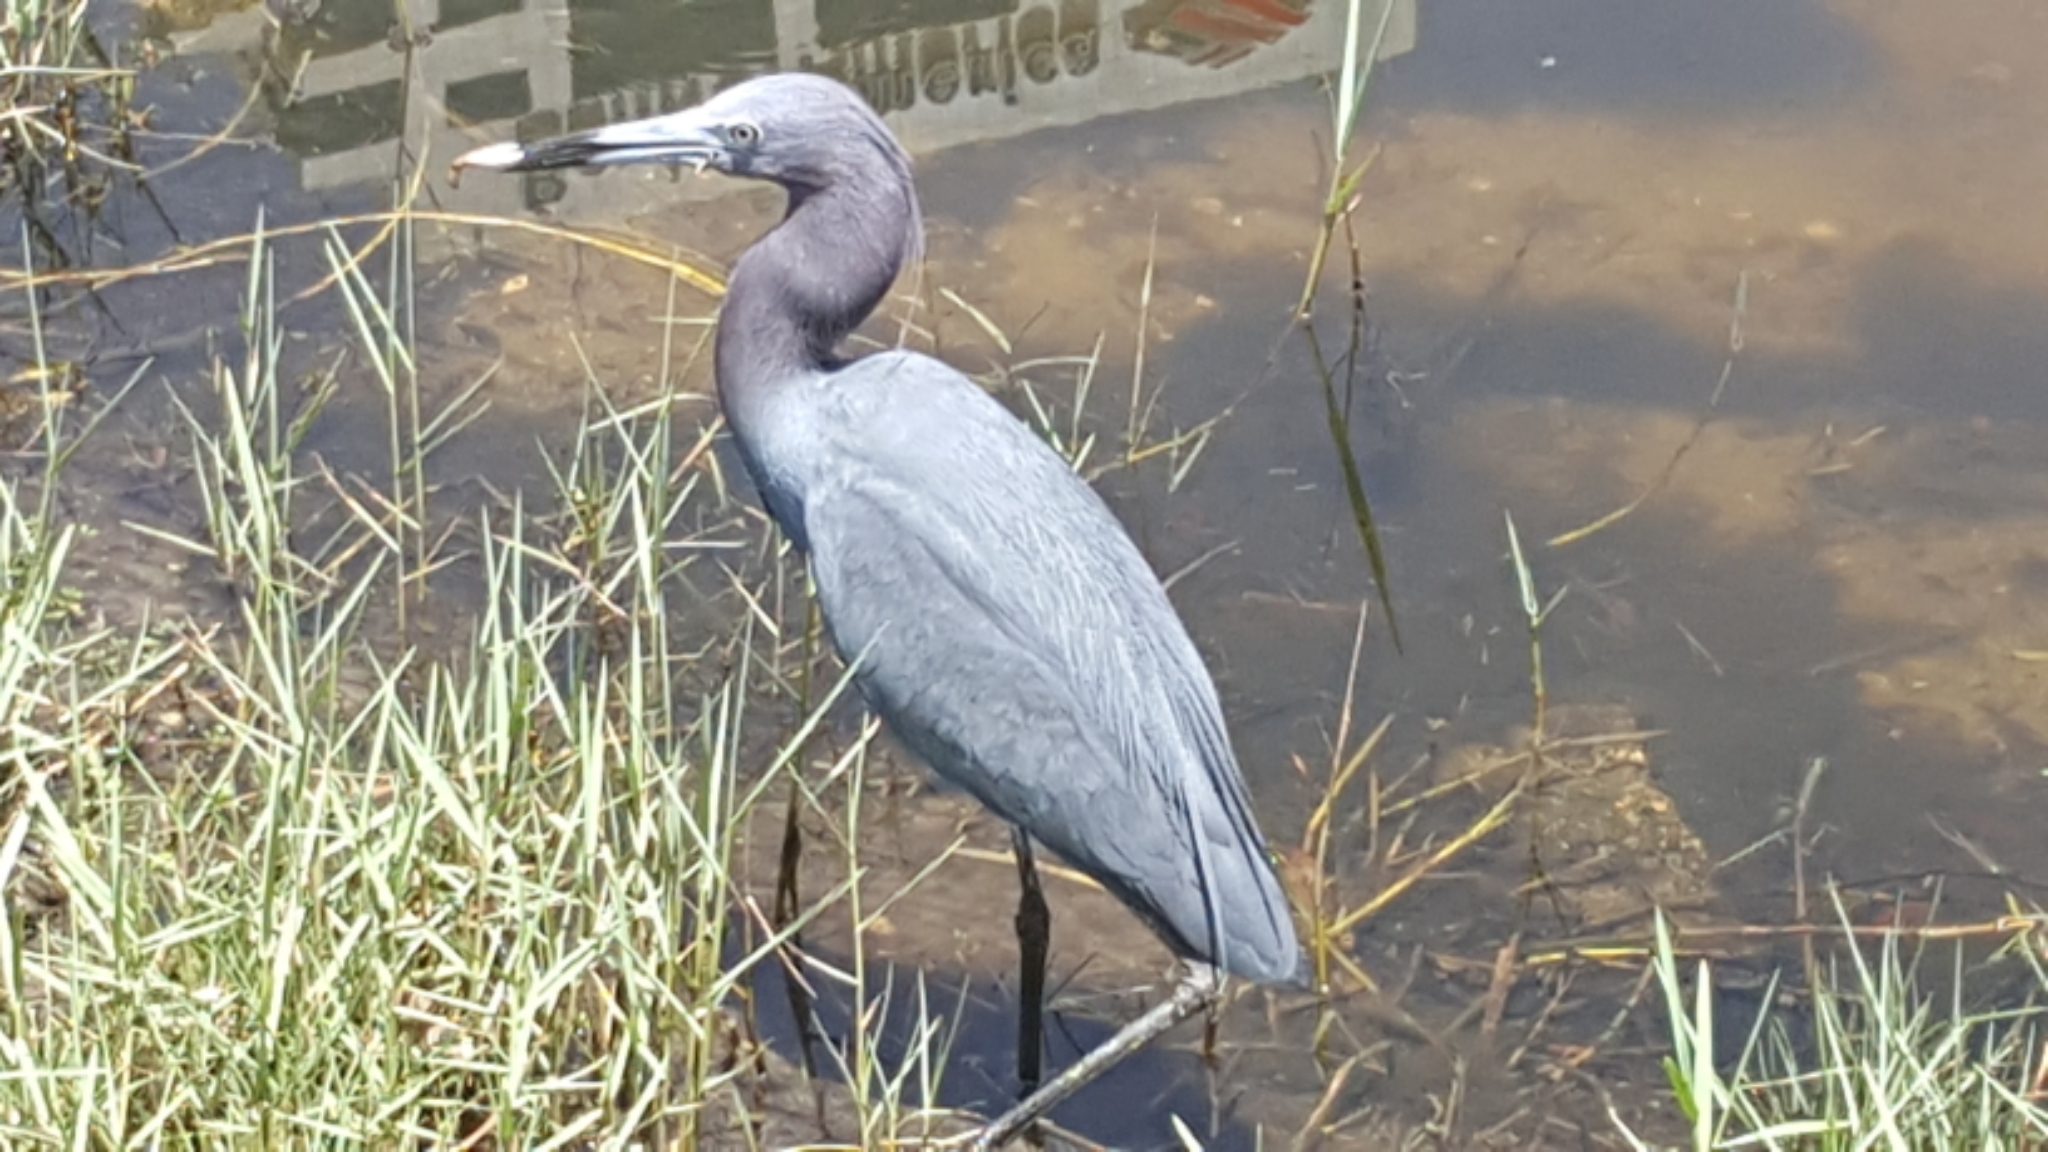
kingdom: Animalia
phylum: Chordata
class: Aves
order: Pelecaniformes
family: Ardeidae
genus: Egretta
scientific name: Egretta caerulea
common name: Little blue heron
